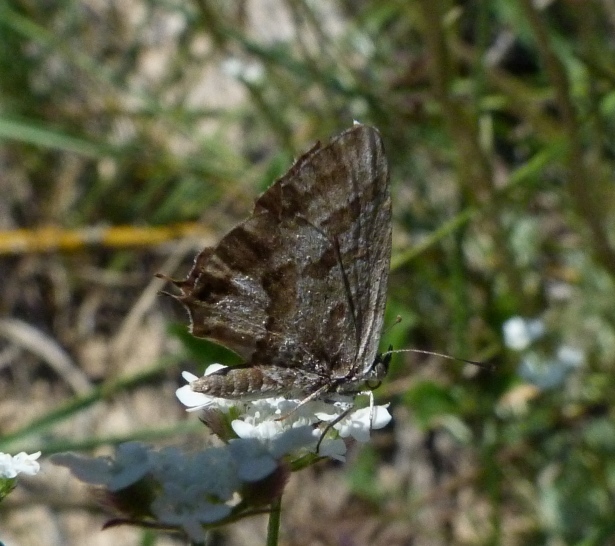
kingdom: Animalia
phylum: Arthropoda
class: Insecta
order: Lepidoptera
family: Lycaenidae
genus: Cacyreus
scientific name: Cacyreus marshalli
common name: Geranium bronze
